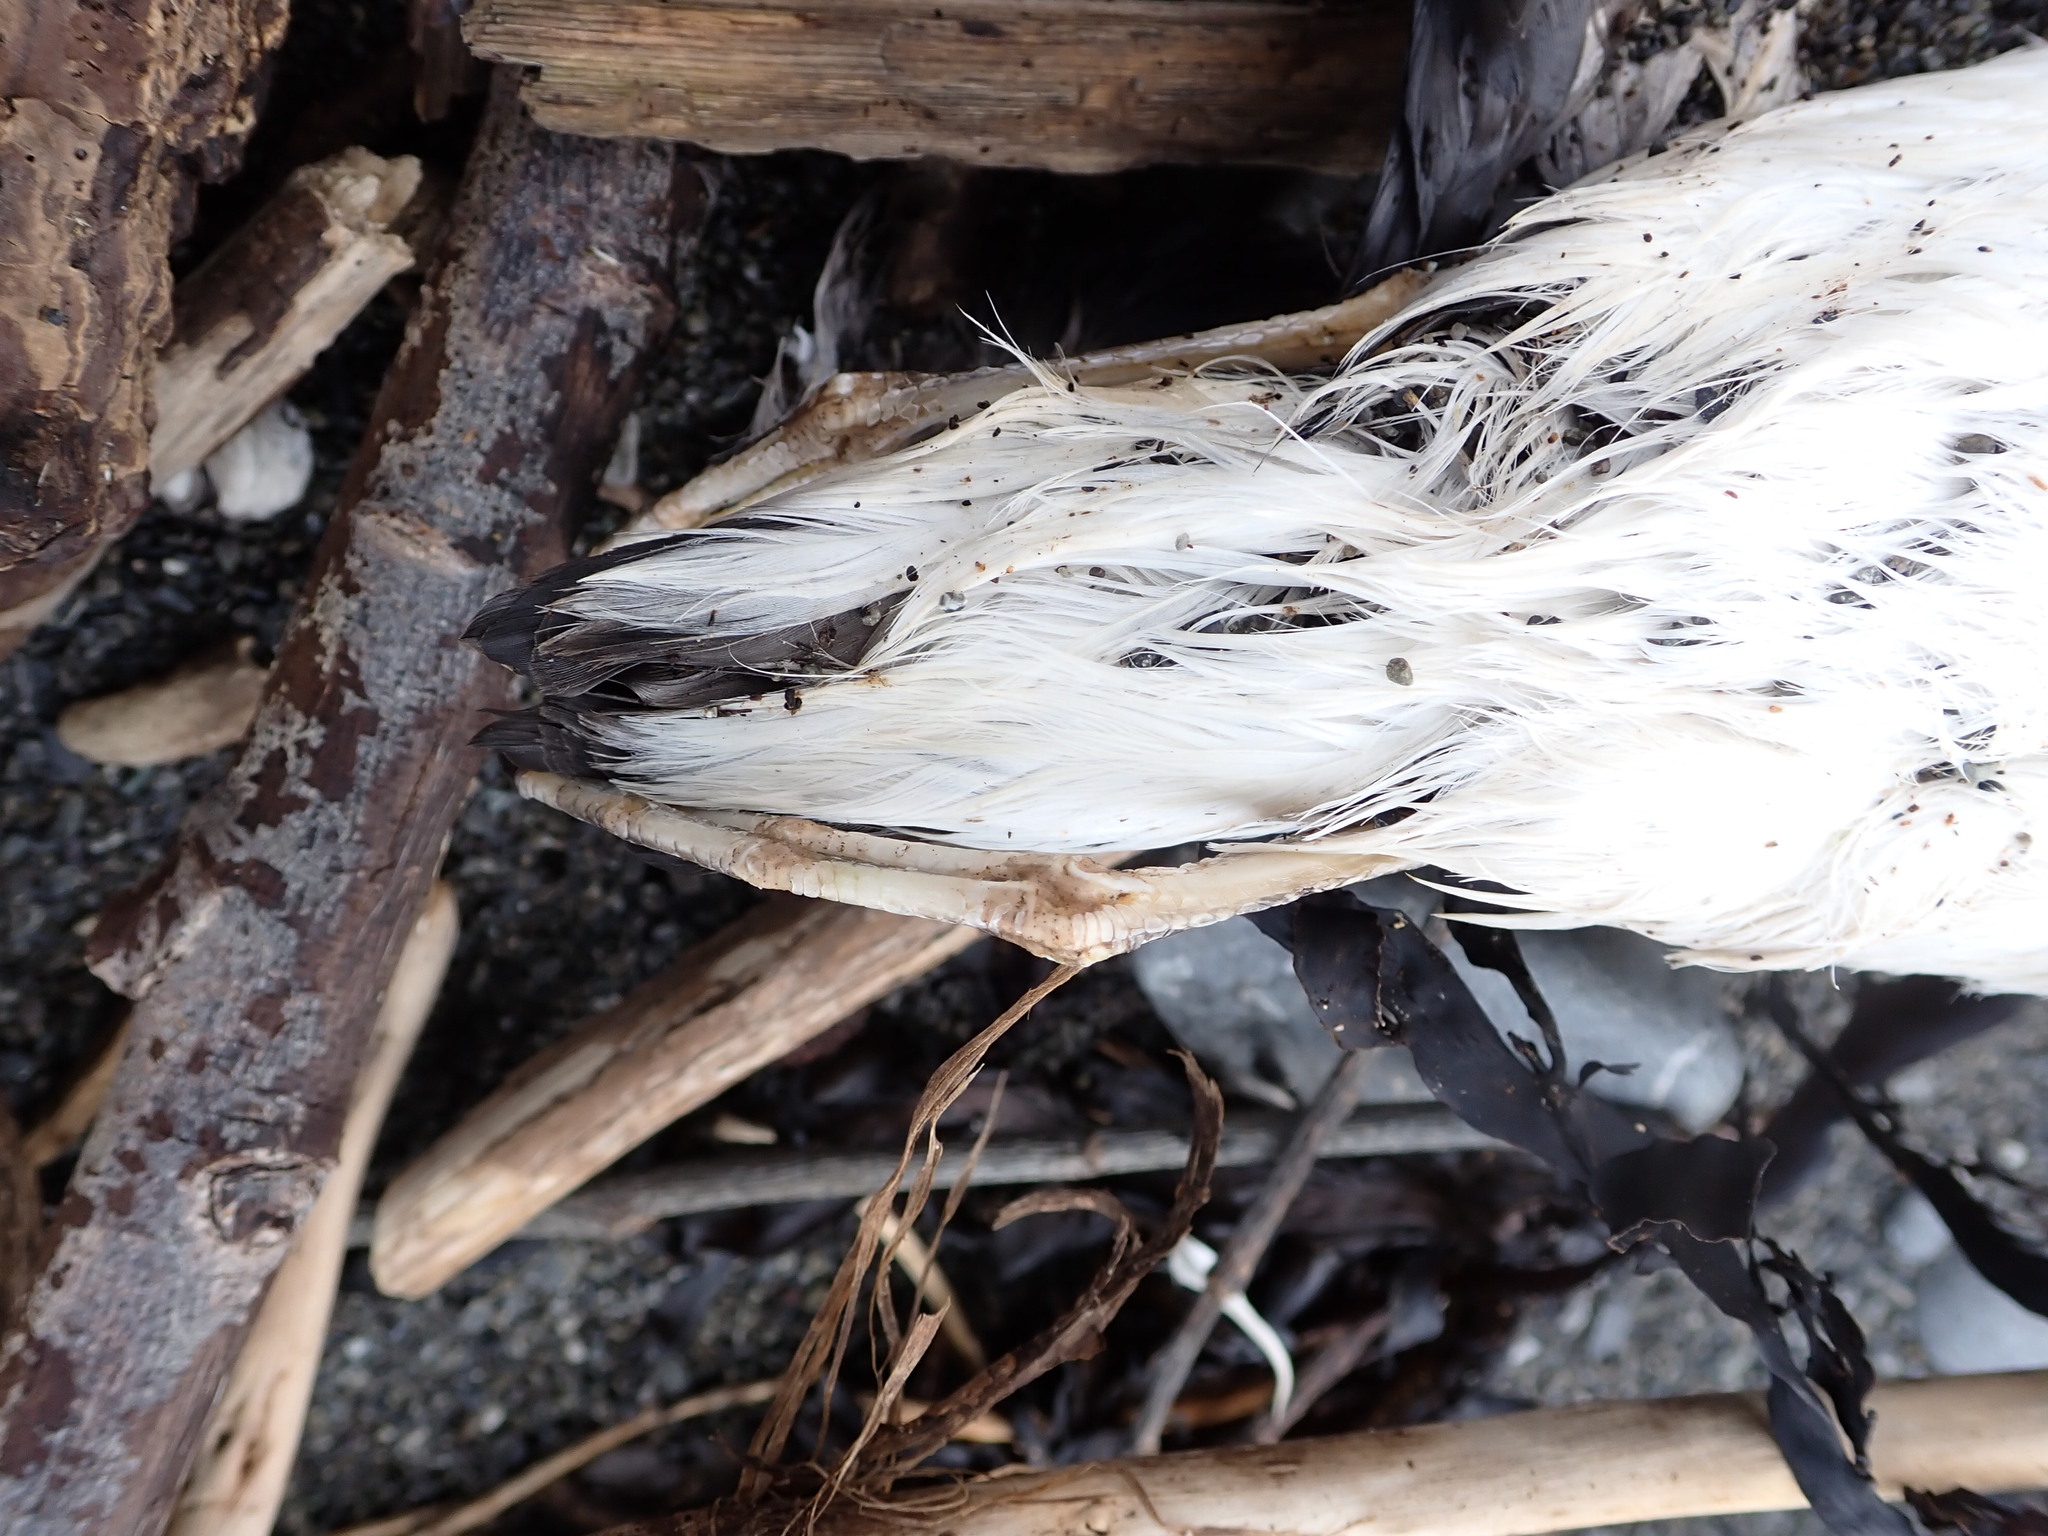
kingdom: Animalia
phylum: Chordata
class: Aves
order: Procellariiformes
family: Procellariidae
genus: Puffinus
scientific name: Puffinus gavia
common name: Fluttering shearwater
